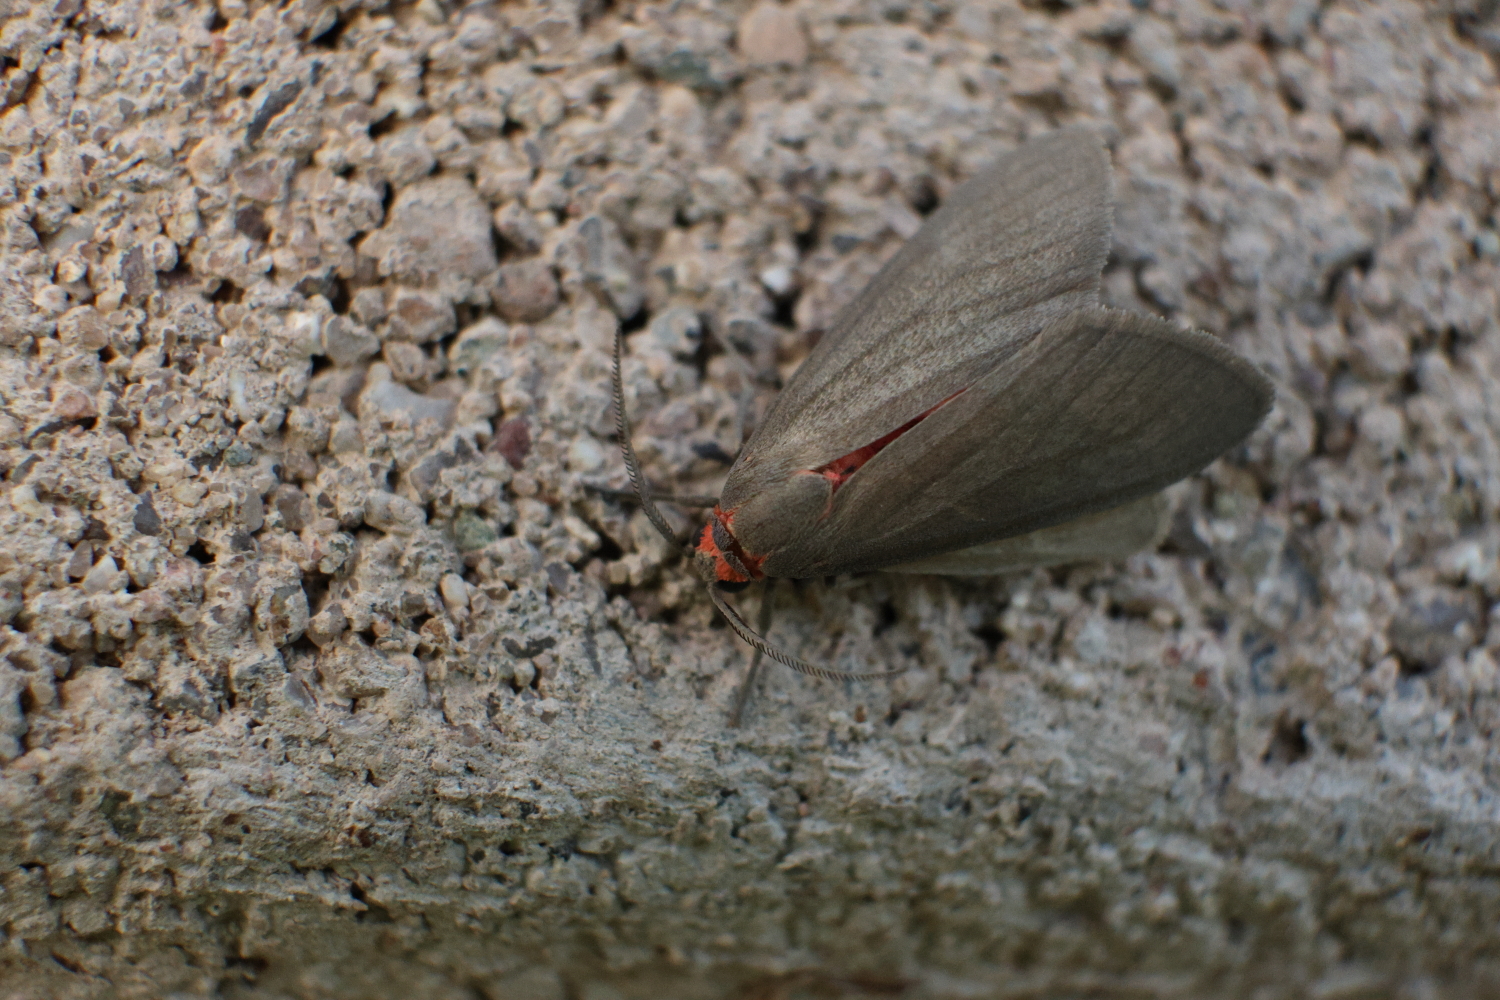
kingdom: Animalia
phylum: Arthropoda
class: Insecta
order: Lepidoptera
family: Erebidae
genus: Euchaetes
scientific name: Euchaetes perlevis
